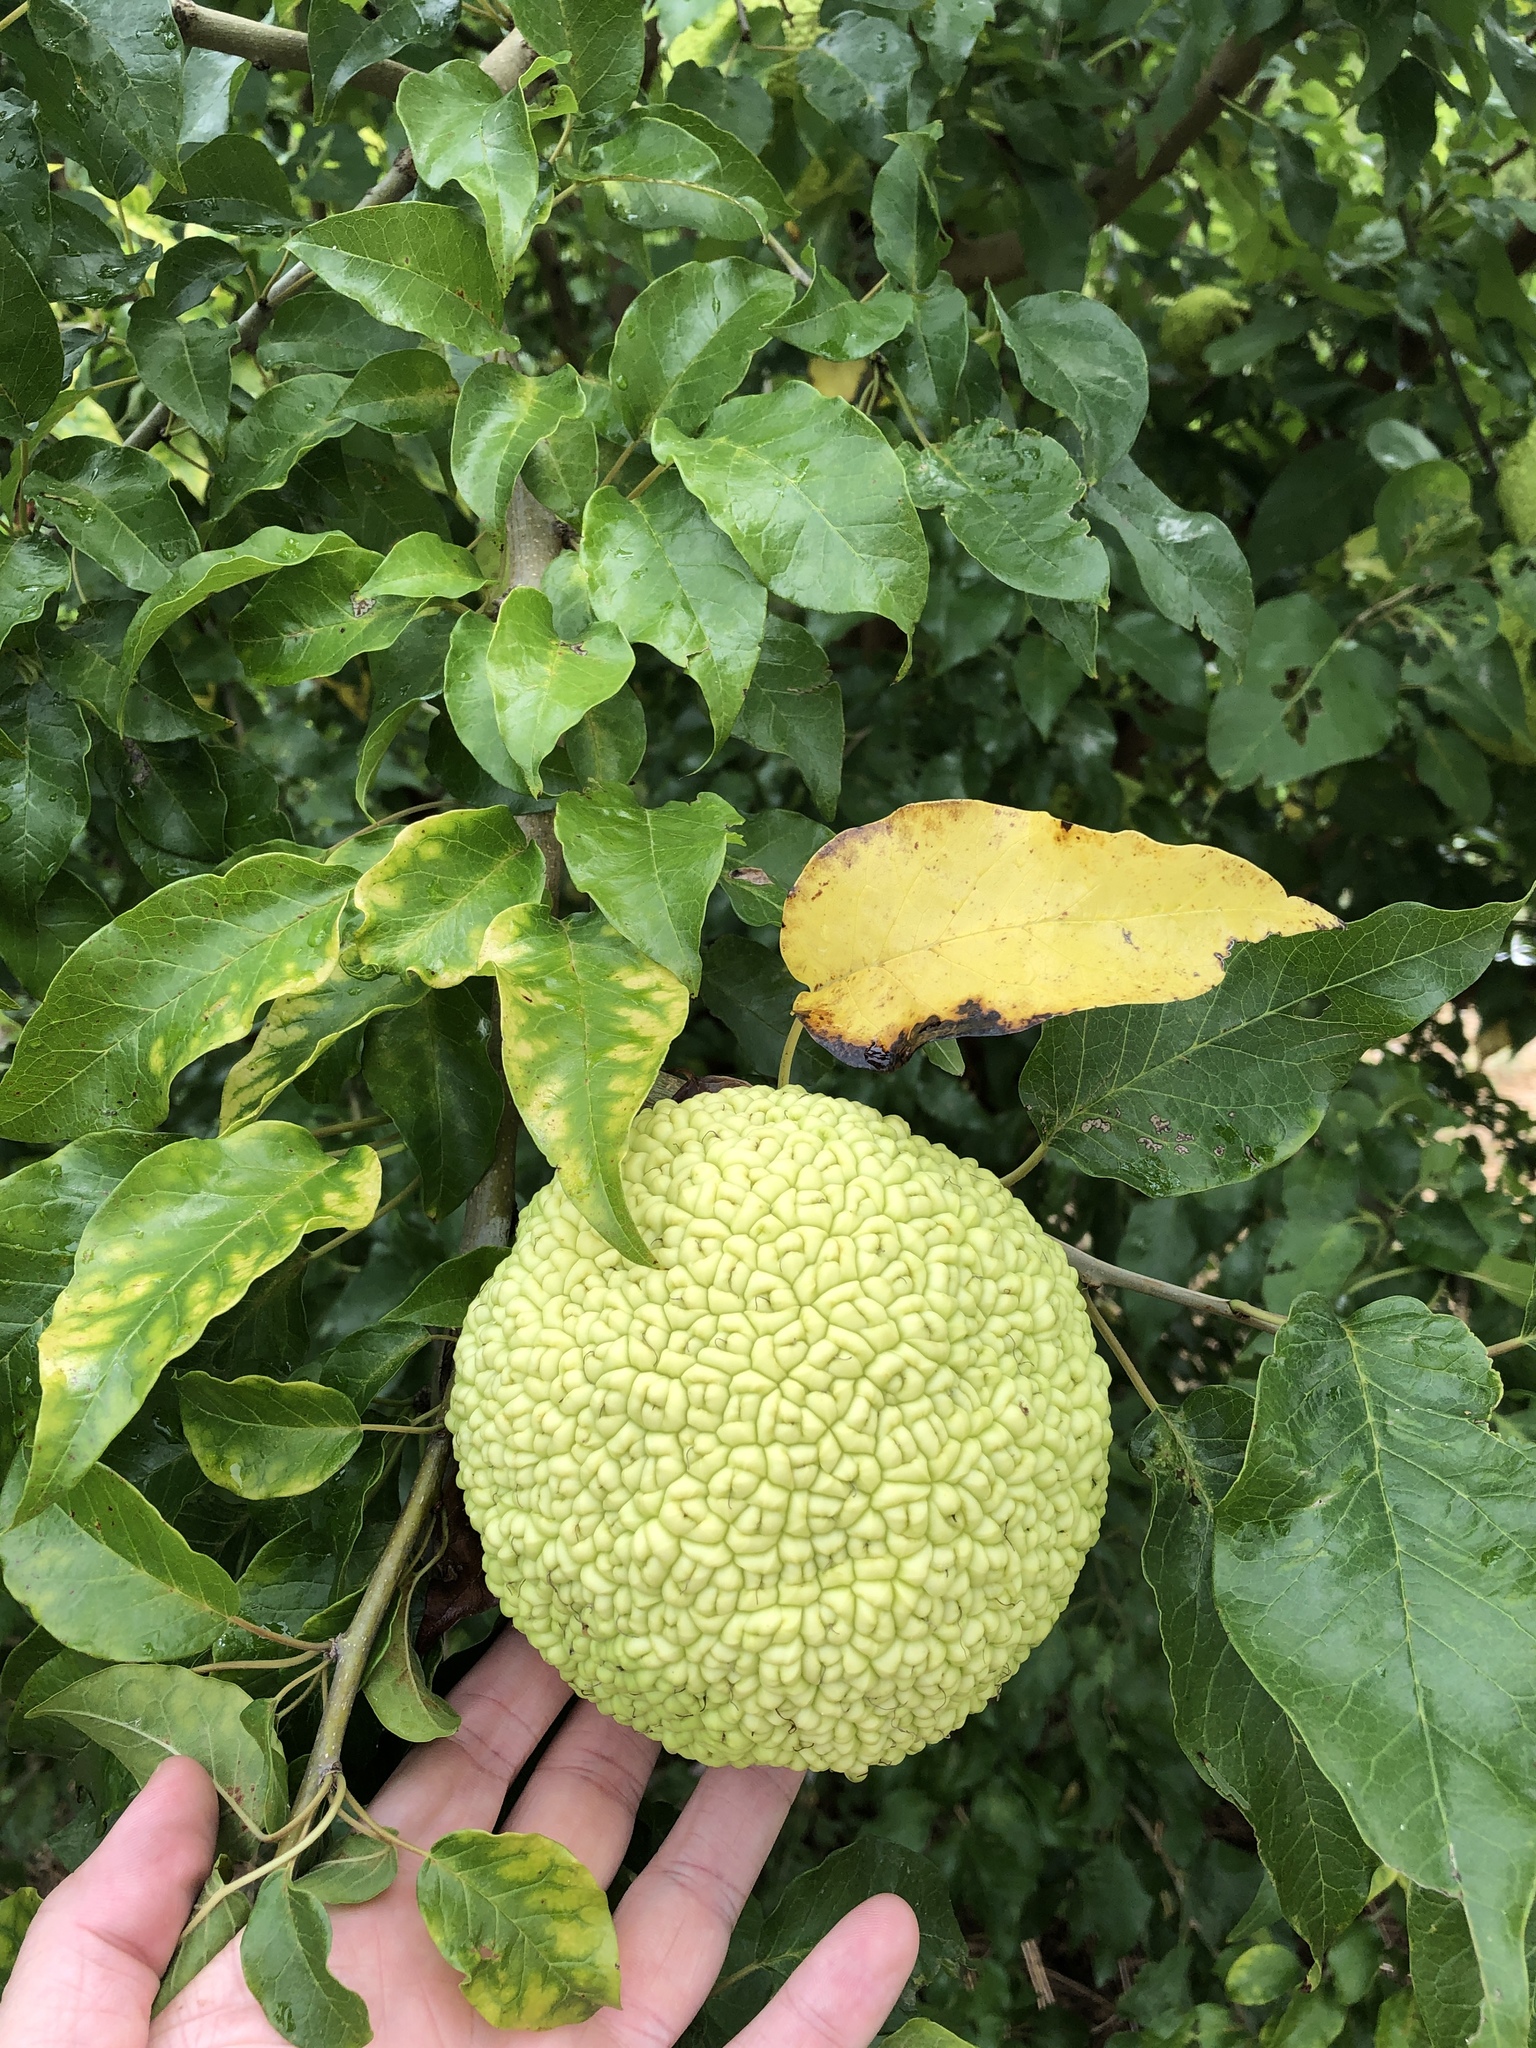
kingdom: Plantae
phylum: Tracheophyta
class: Magnoliopsida
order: Rosales
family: Moraceae
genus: Maclura
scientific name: Maclura pomifera
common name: Osage-orange
